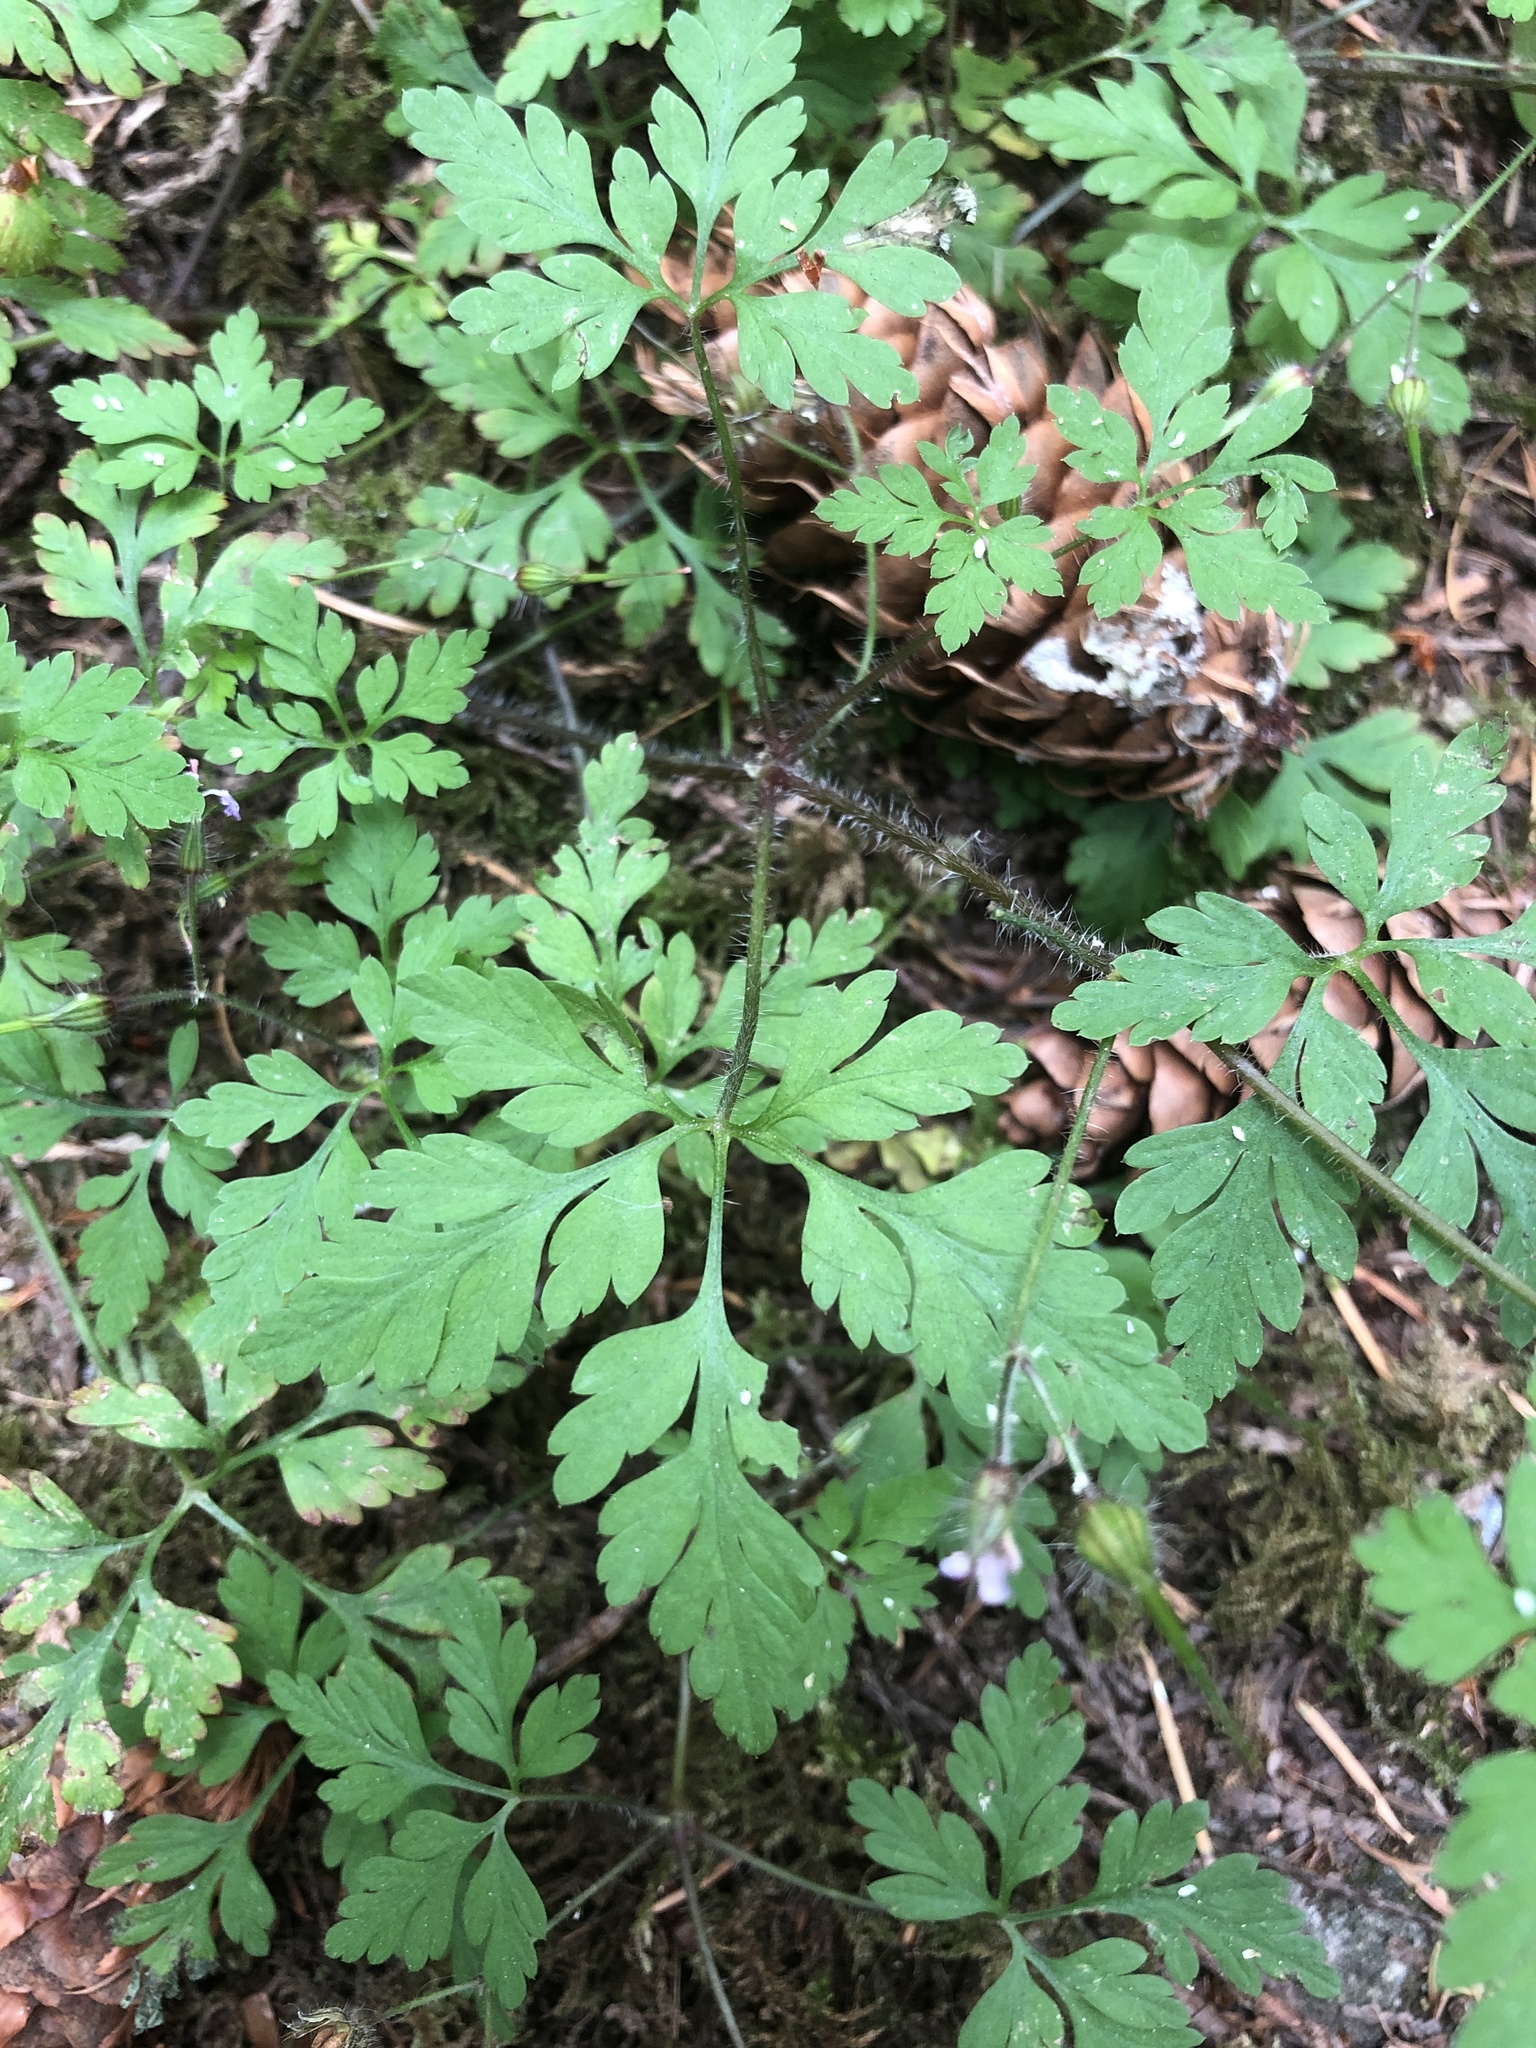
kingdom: Plantae
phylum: Tracheophyta
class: Magnoliopsida
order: Geraniales
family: Geraniaceae
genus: Geranium
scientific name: Geranium robertianum
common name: Herb-robert
